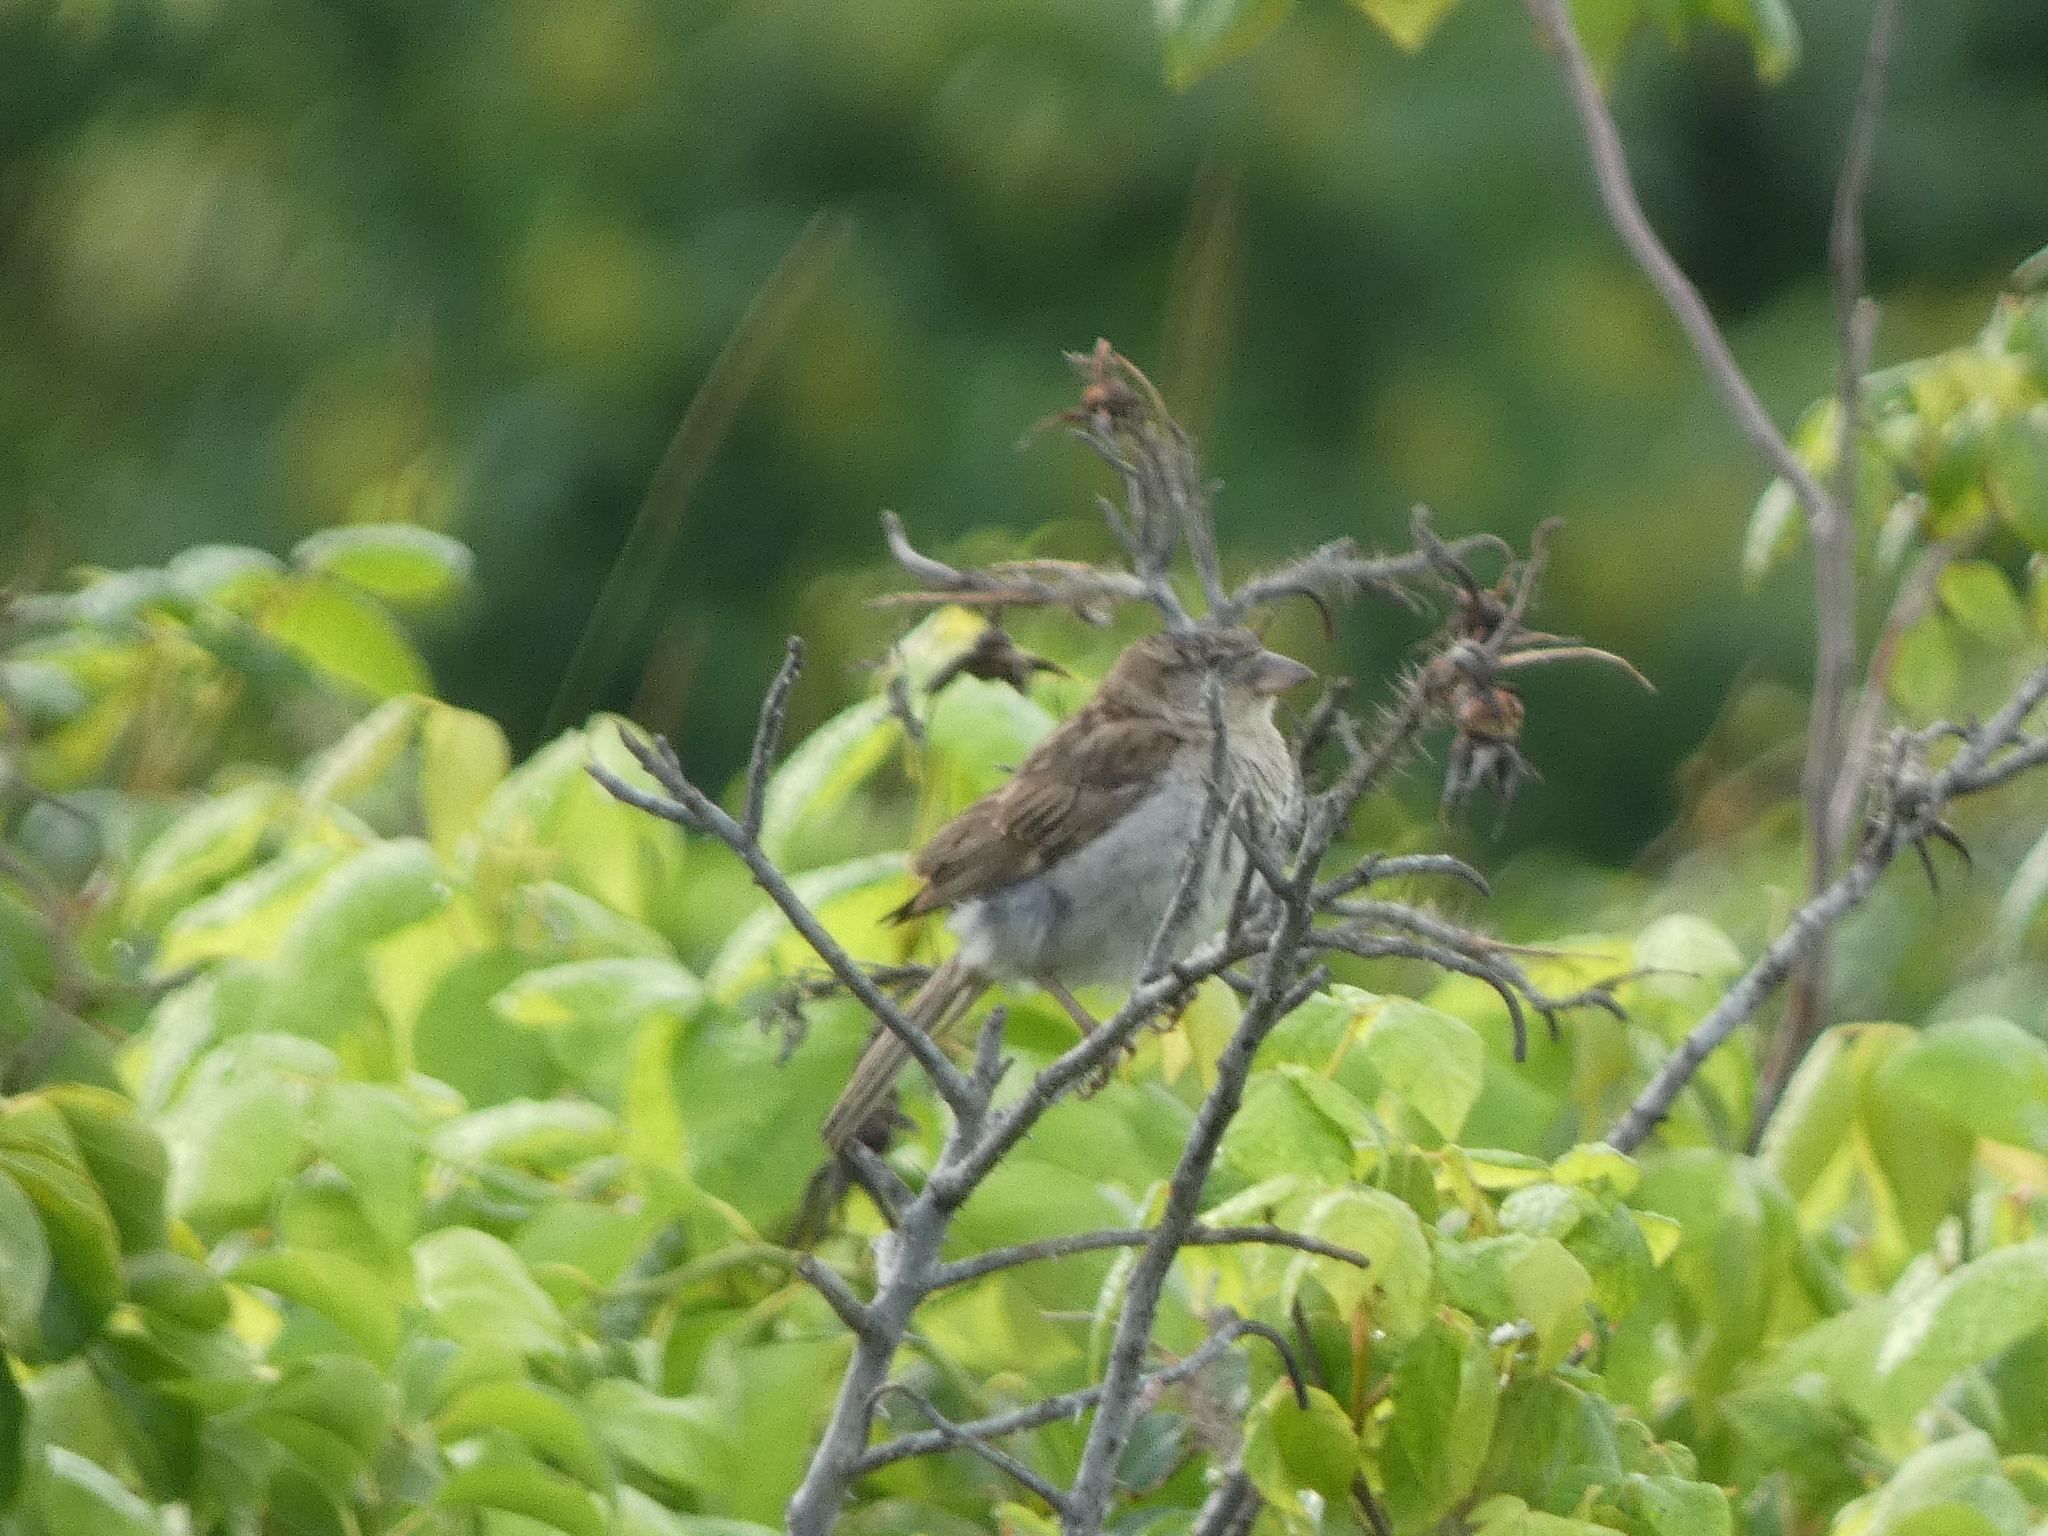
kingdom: Animalia
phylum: Chordata
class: Aves
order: Passeriformes
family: Passeridae
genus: Passer
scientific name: Passer domesticus
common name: House sparrow
